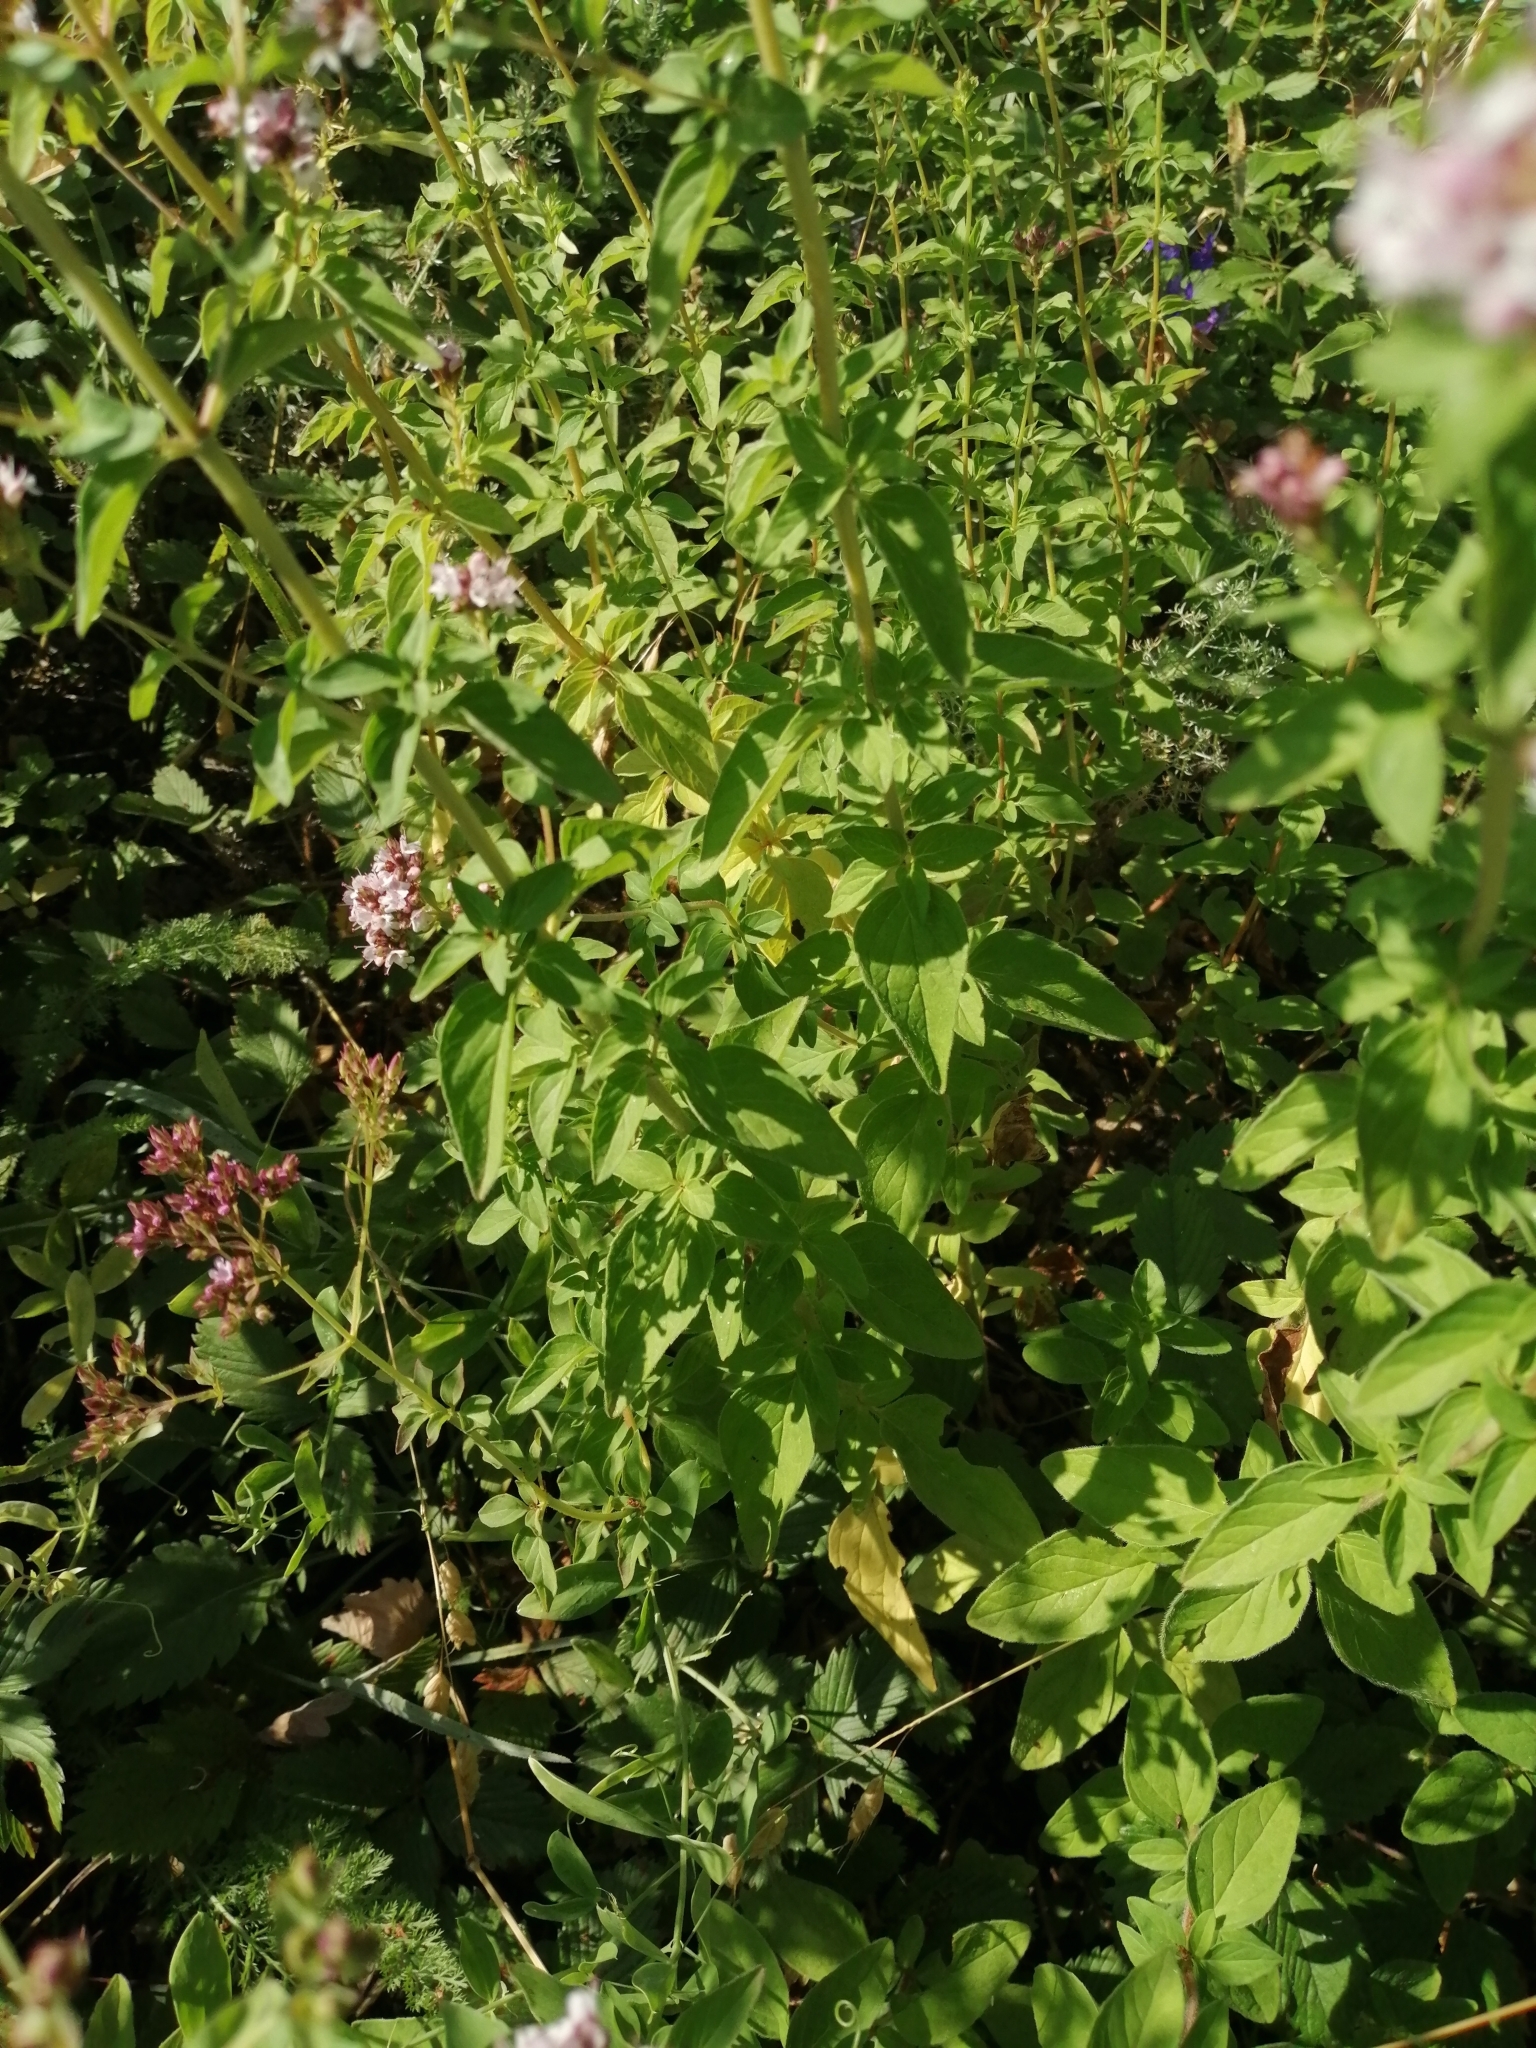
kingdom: Plantae
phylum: Tracheophyta
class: Magnoliopsida
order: Lamiales
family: Lamiaceae
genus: Origanum
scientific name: Origanum vulgare
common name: Wild marjoram
